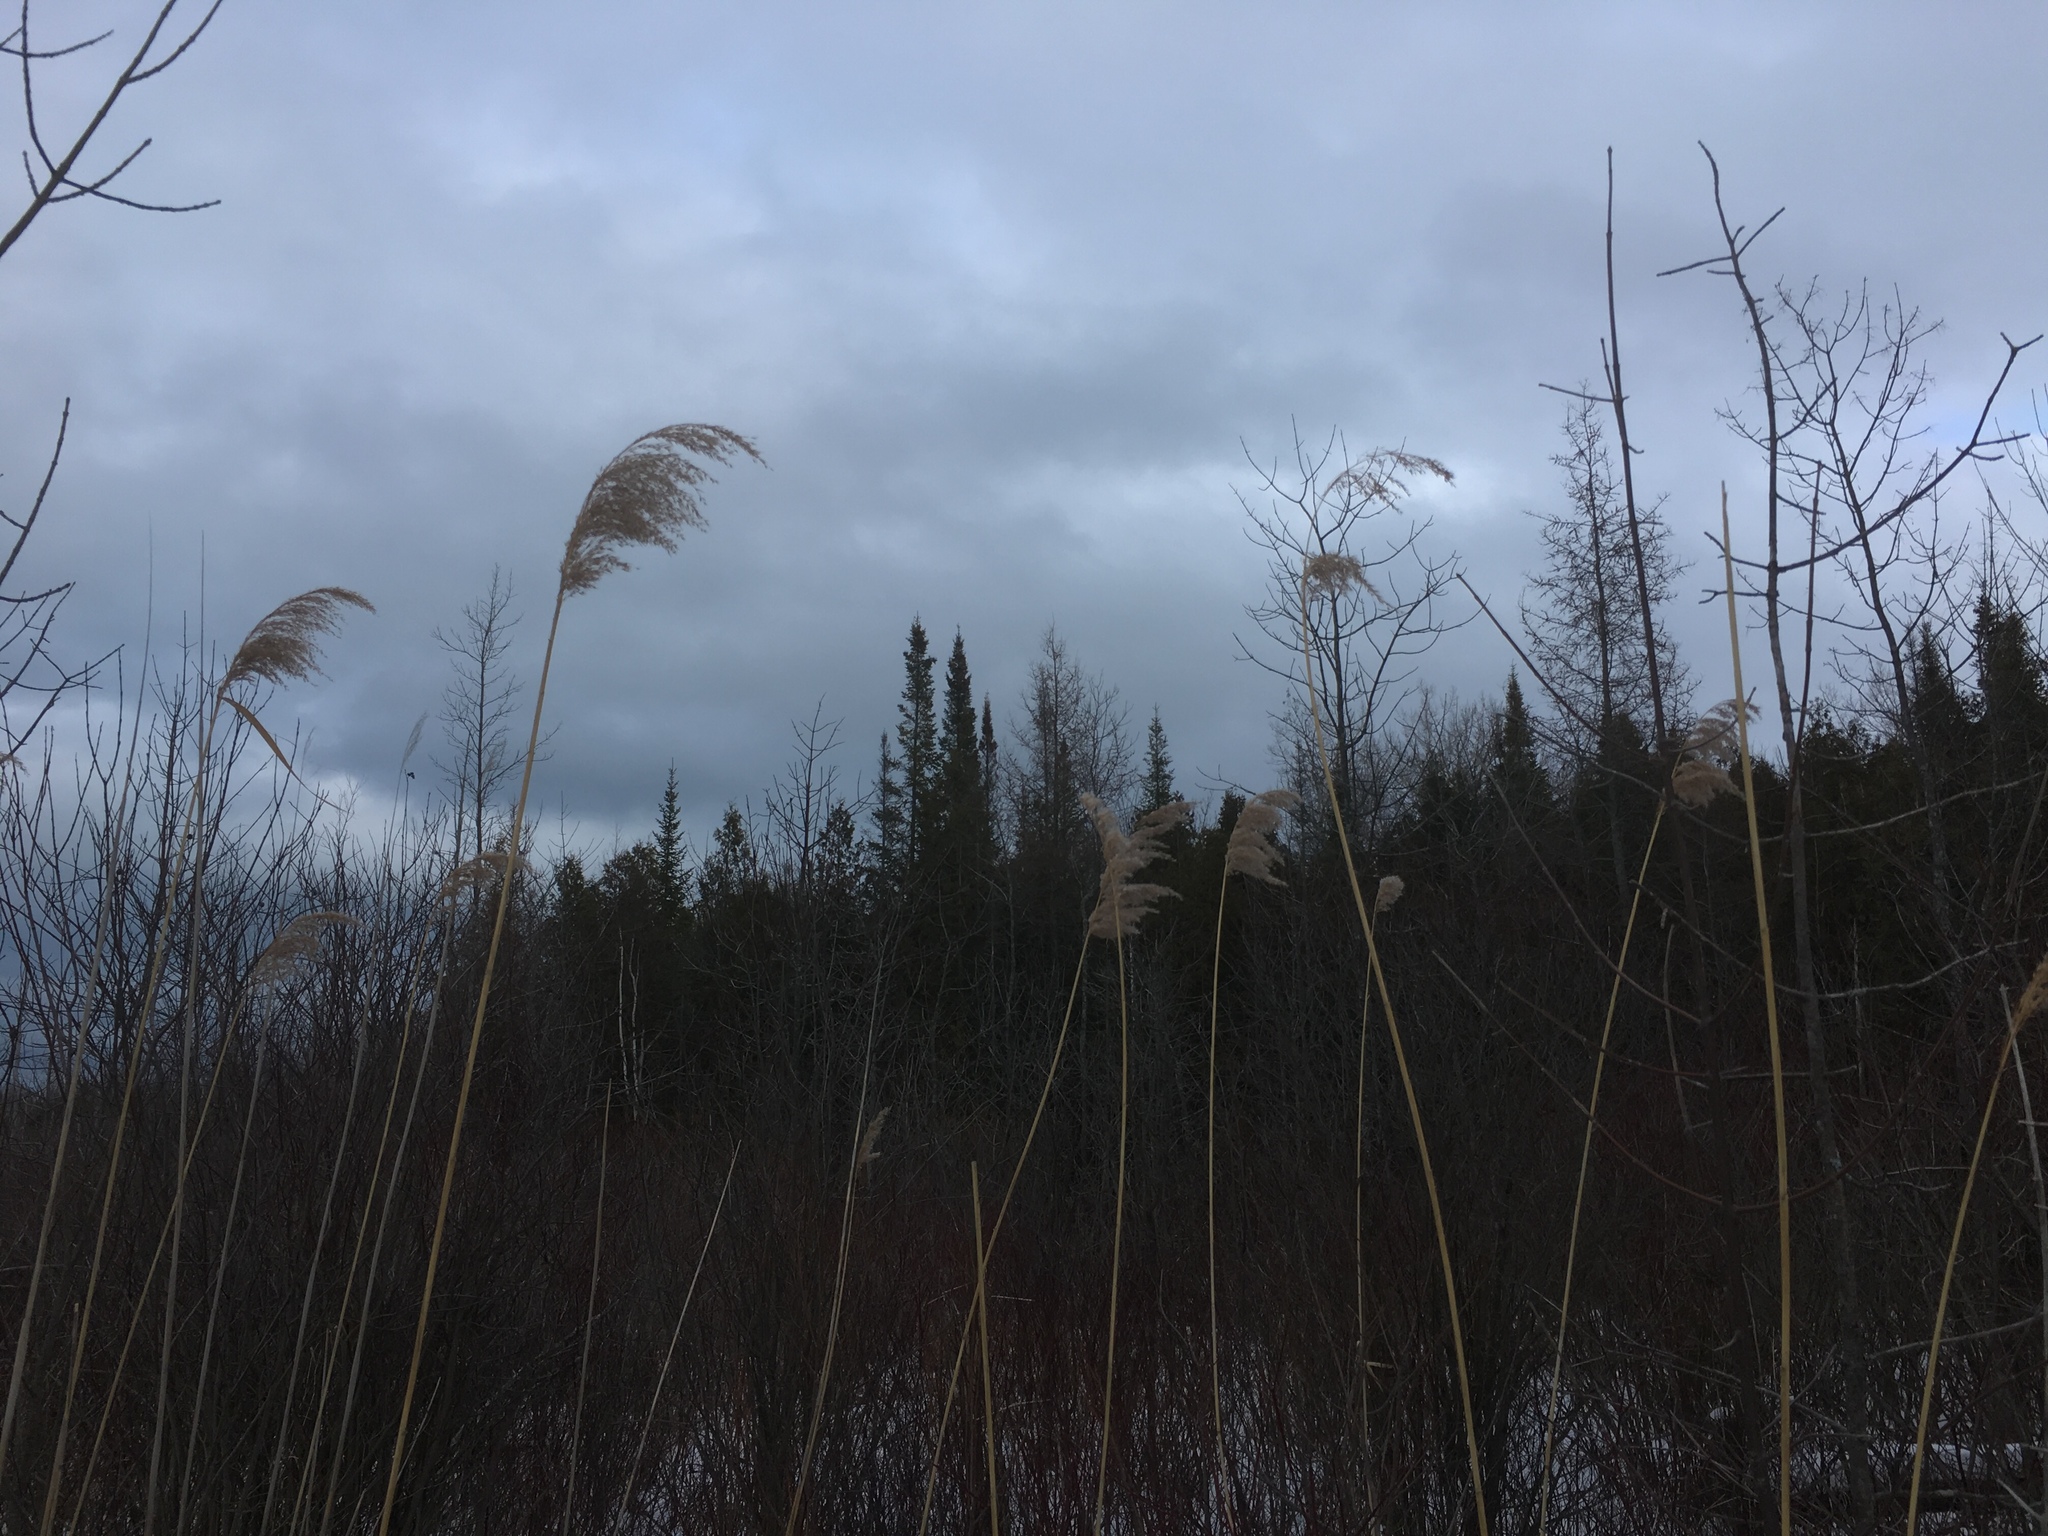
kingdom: Plantae
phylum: Tracheophyta
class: Liliopsida
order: Poales
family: Poaceae
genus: Phragmites
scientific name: Phragmites australis
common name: Common reed
